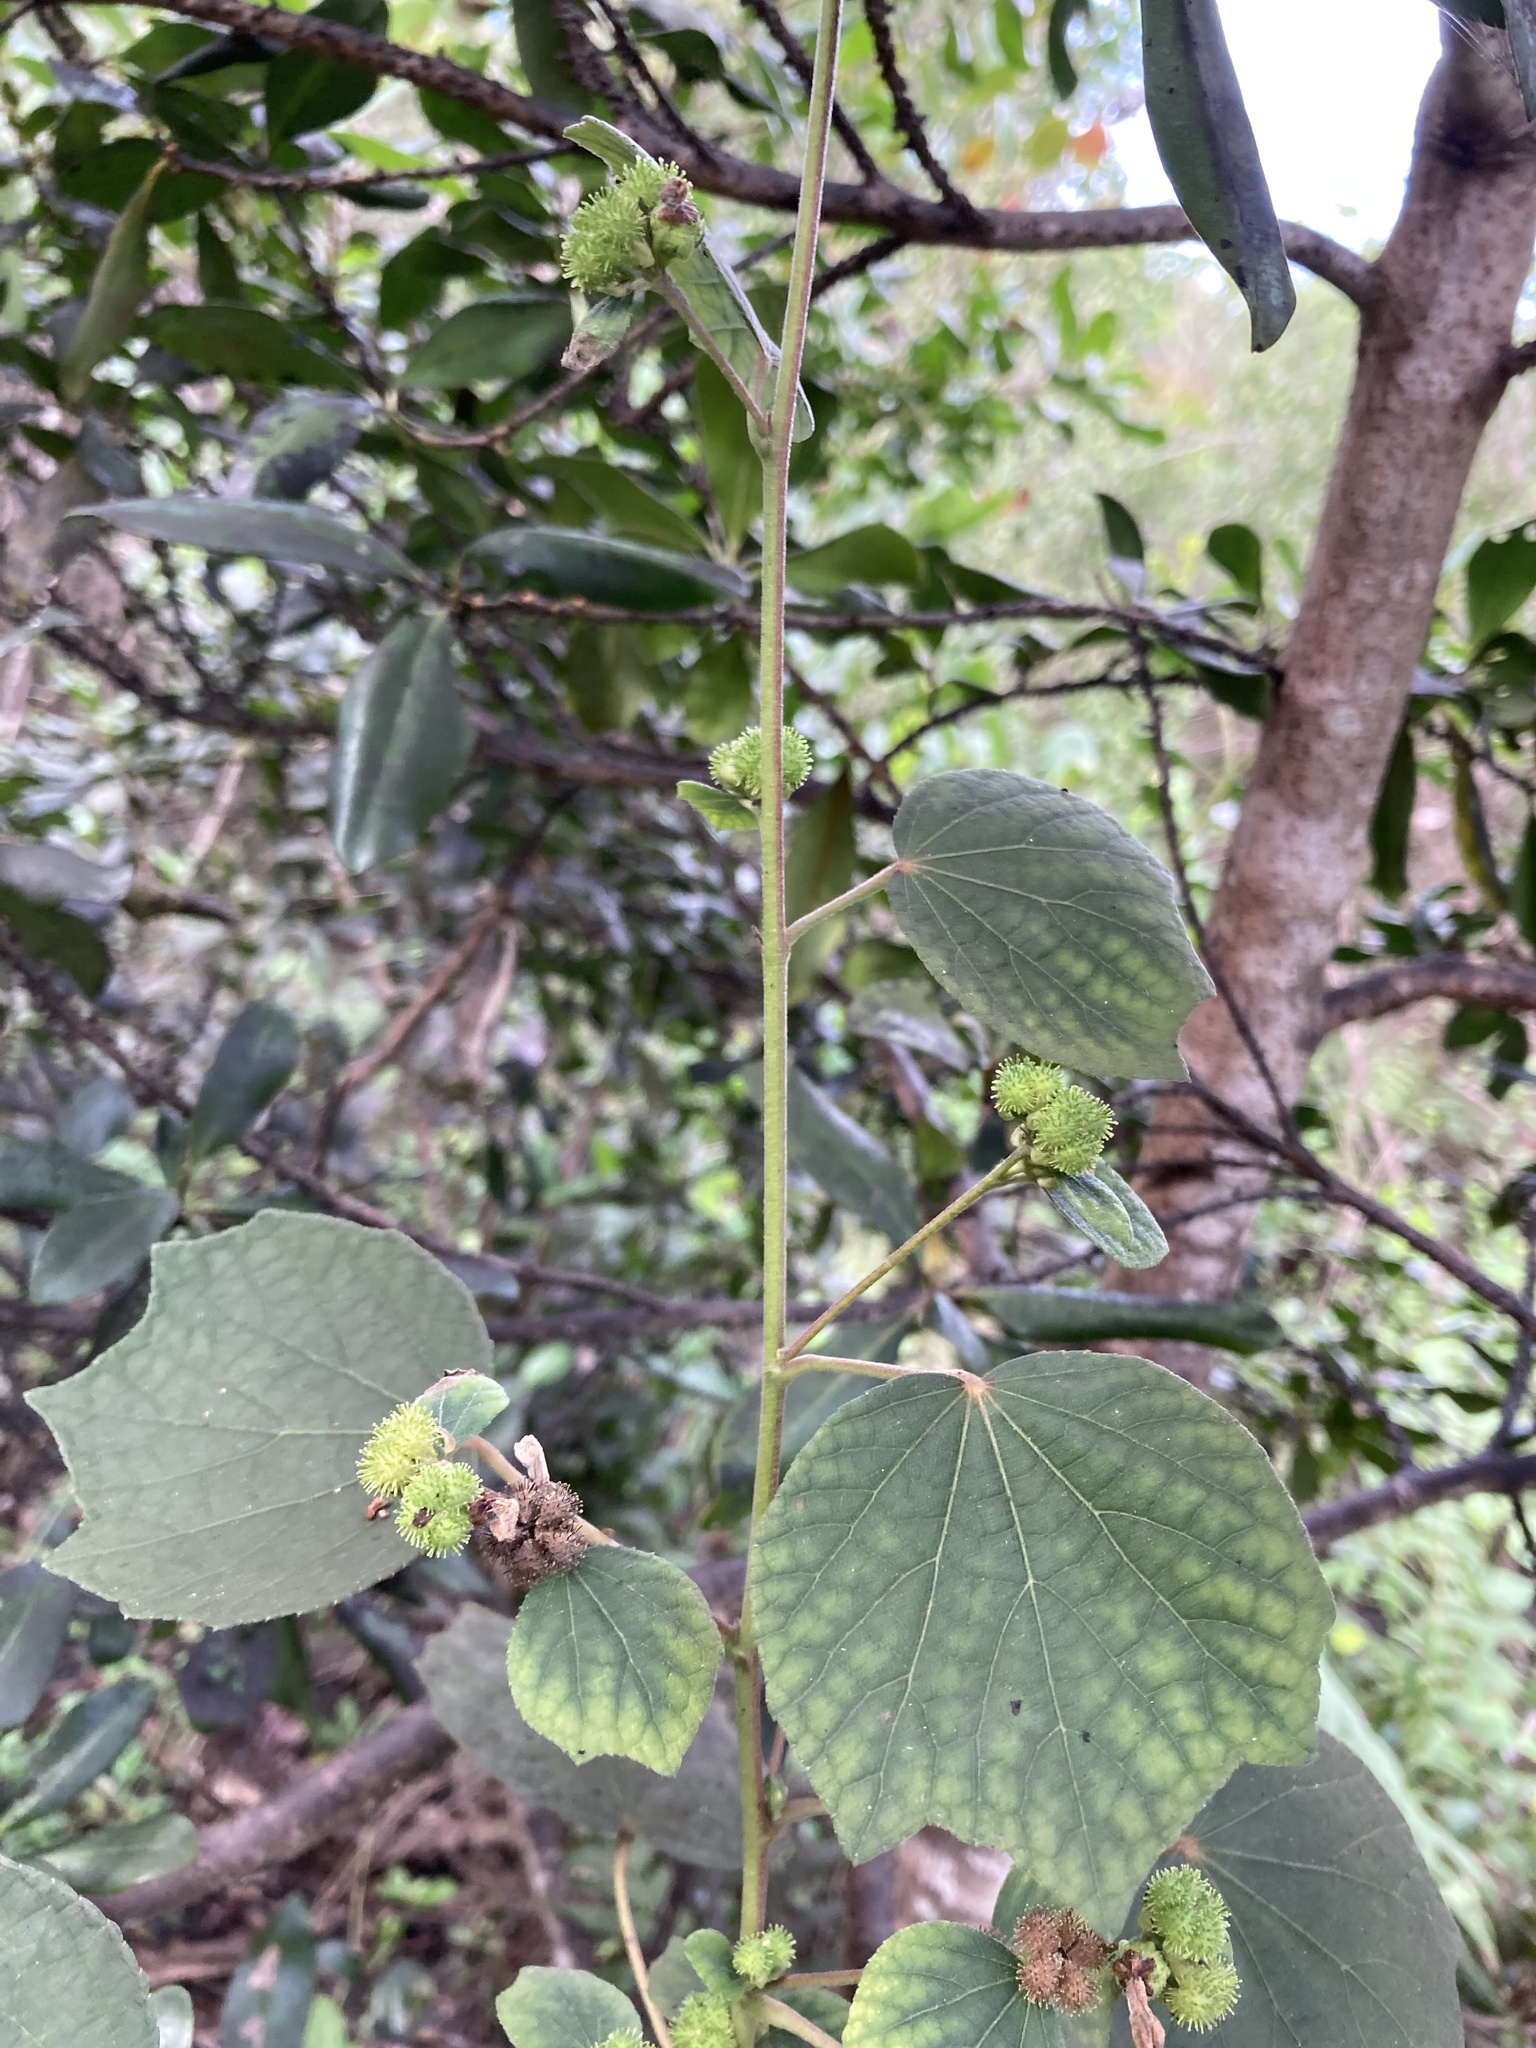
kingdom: Plantae
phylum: Tracheophyta
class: Magnoliopsida
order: Malvales
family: Malvaceae
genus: Urena
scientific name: Urena lobata
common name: Caesarweed
